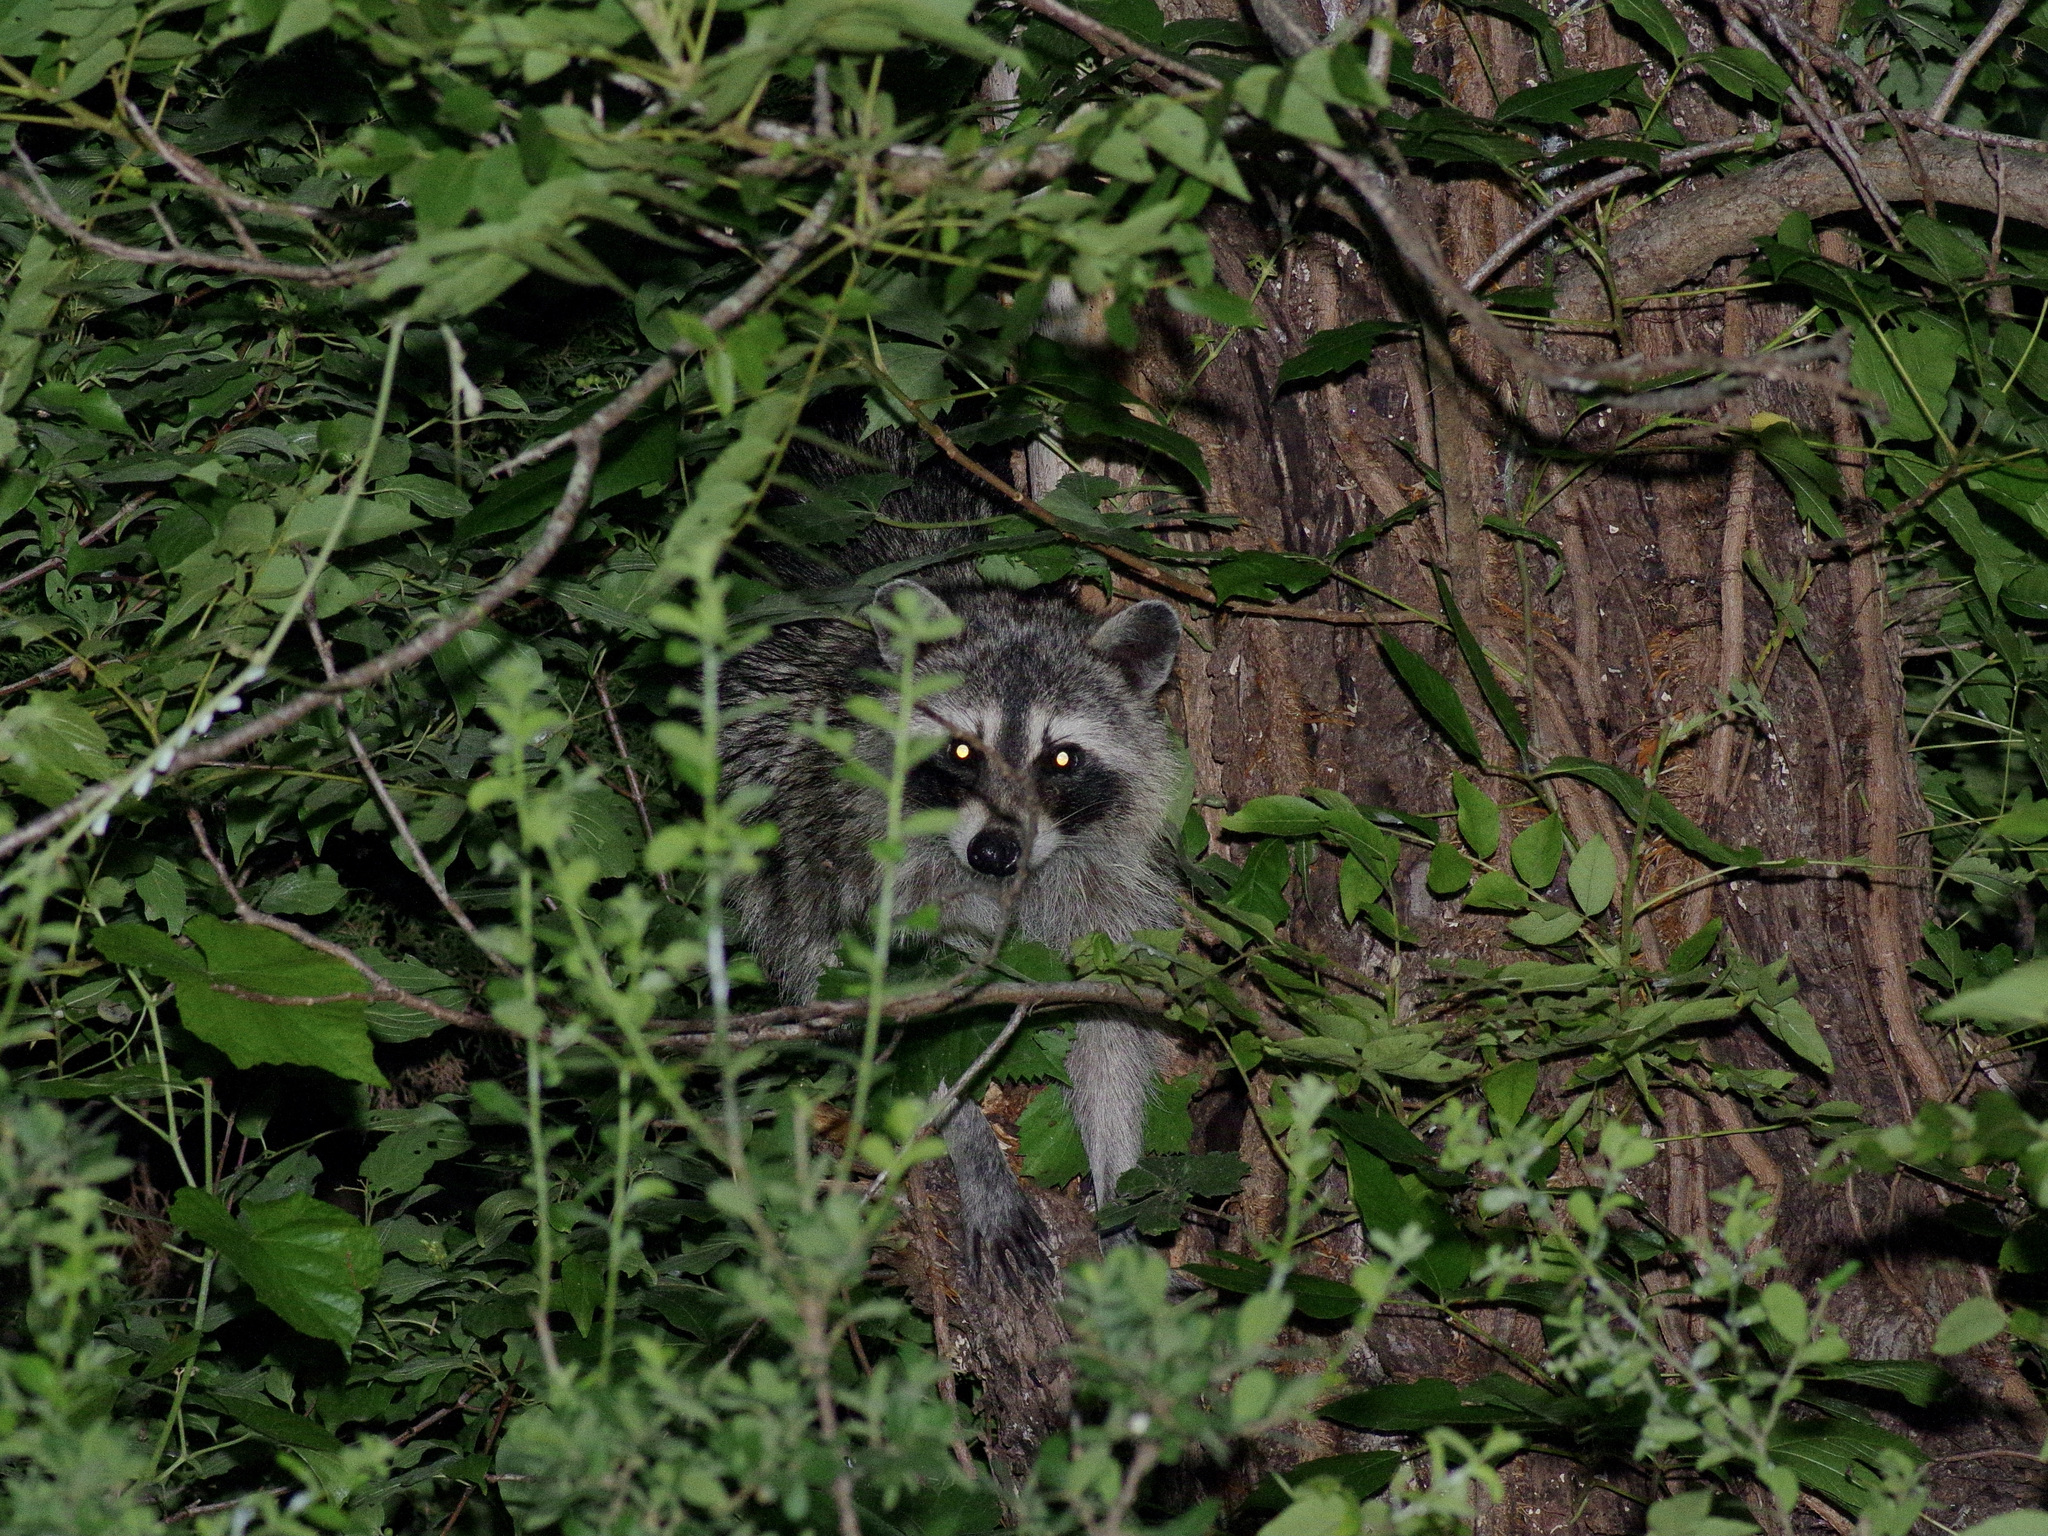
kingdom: Animalia
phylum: Chordata
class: Mammalia
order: Carnivora
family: Procyonidae
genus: Procyon
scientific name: Procyon lotor
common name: Raccoon
